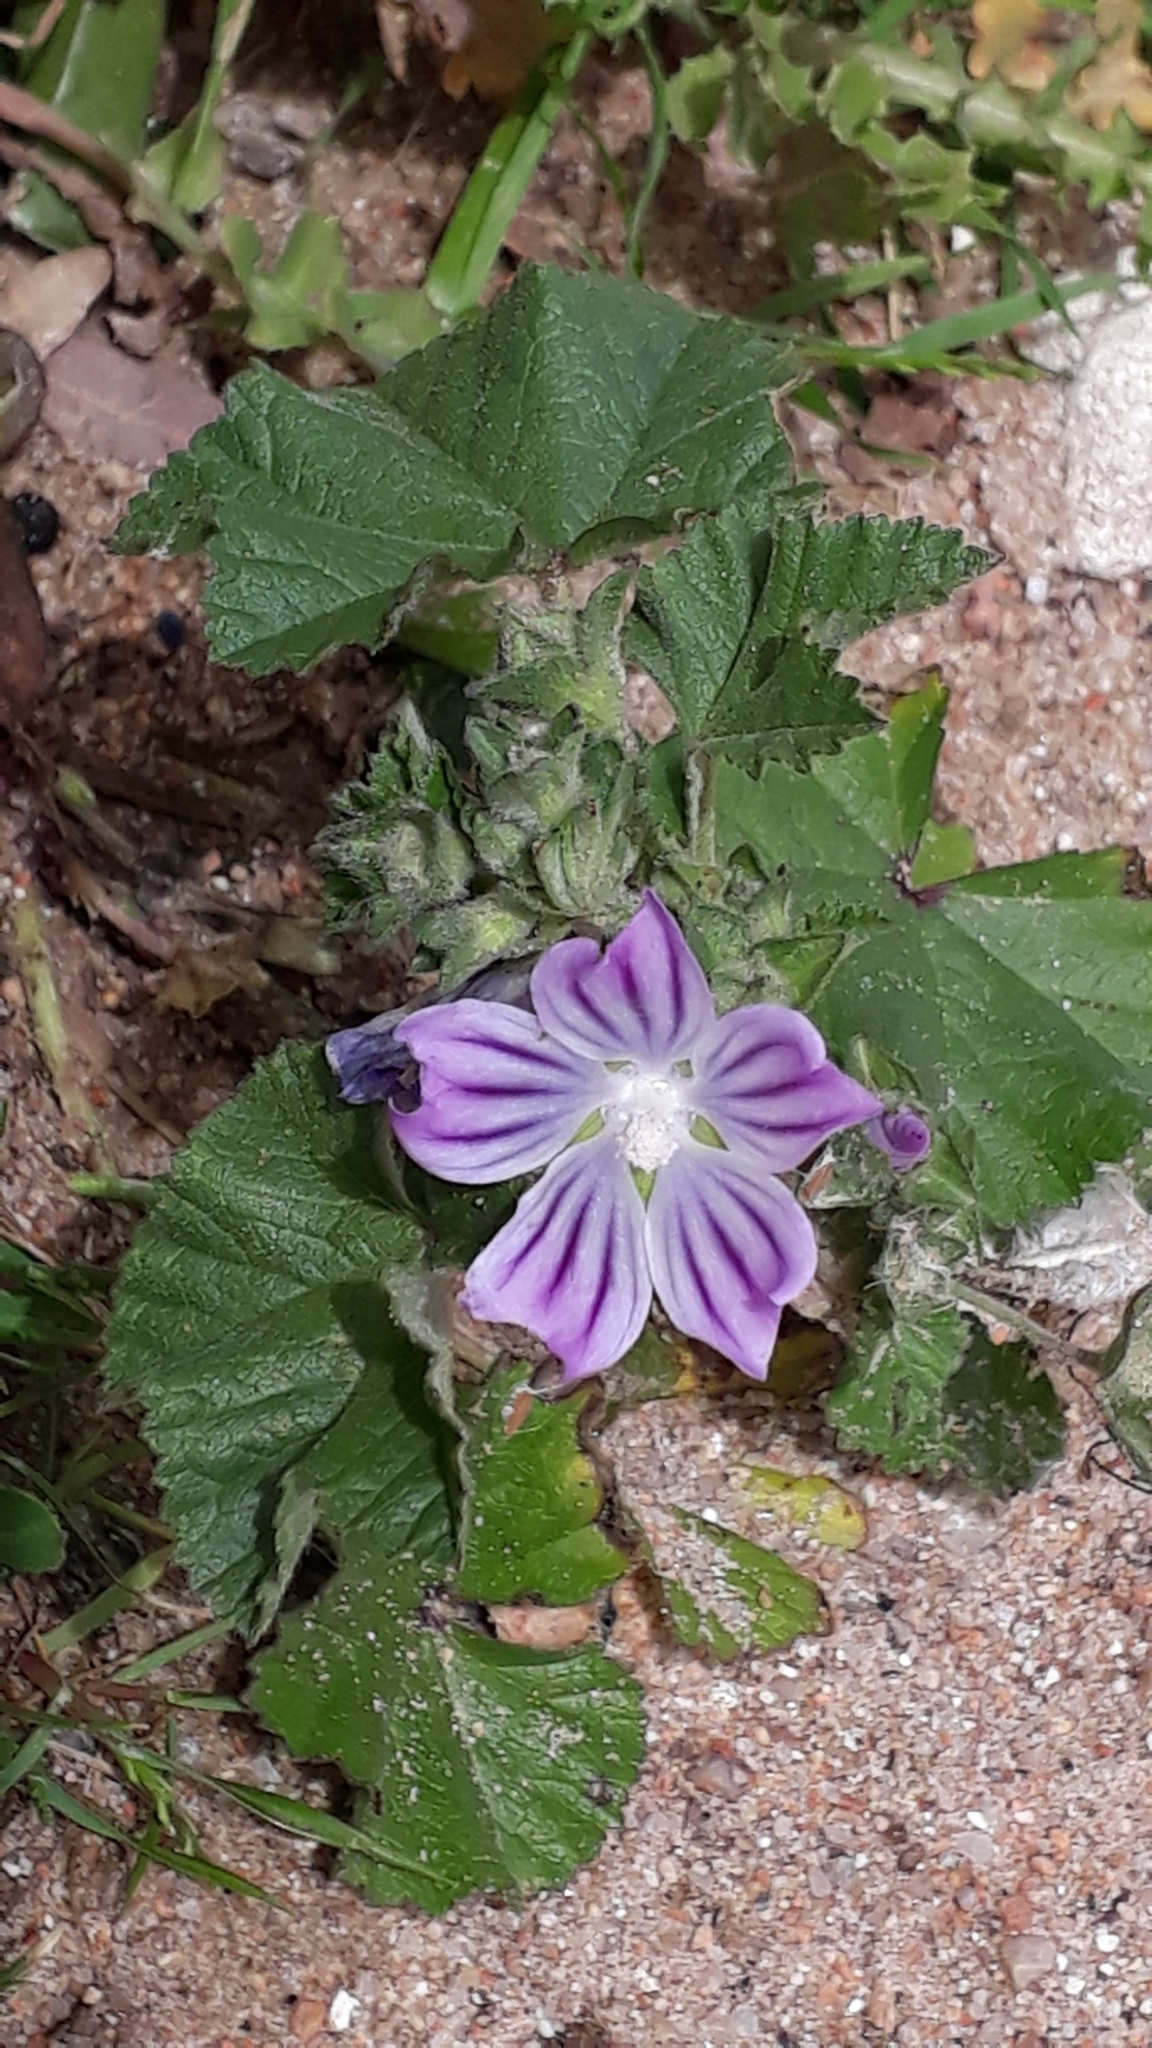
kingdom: Plantae
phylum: Tracheophyta
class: Magnoliopsida
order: Malvales
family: Malvaceae
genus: Malva
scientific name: Malva cretica
